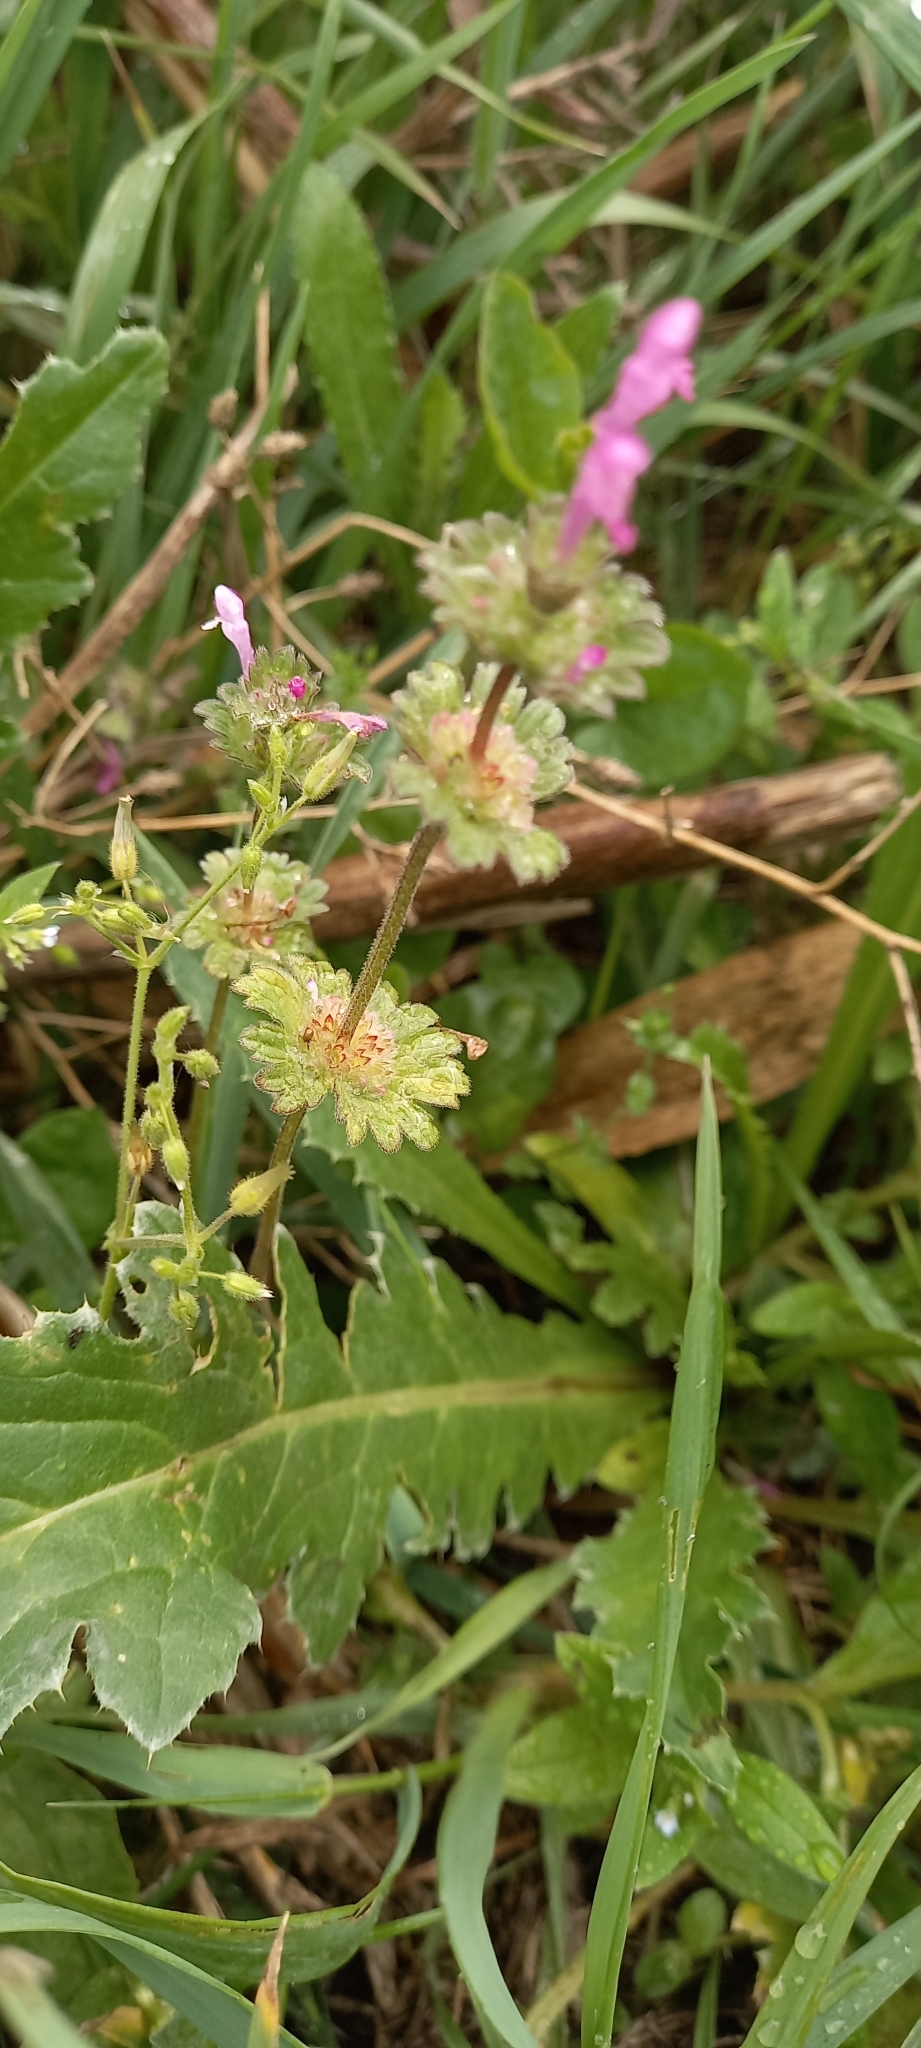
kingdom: Plantae
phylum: Tracheophyta
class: Magnoliopsida
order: Lamiales
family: Lamiaceae
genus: Lamium
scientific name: Lamium amplexicaule
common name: Henbit dead-nettle
